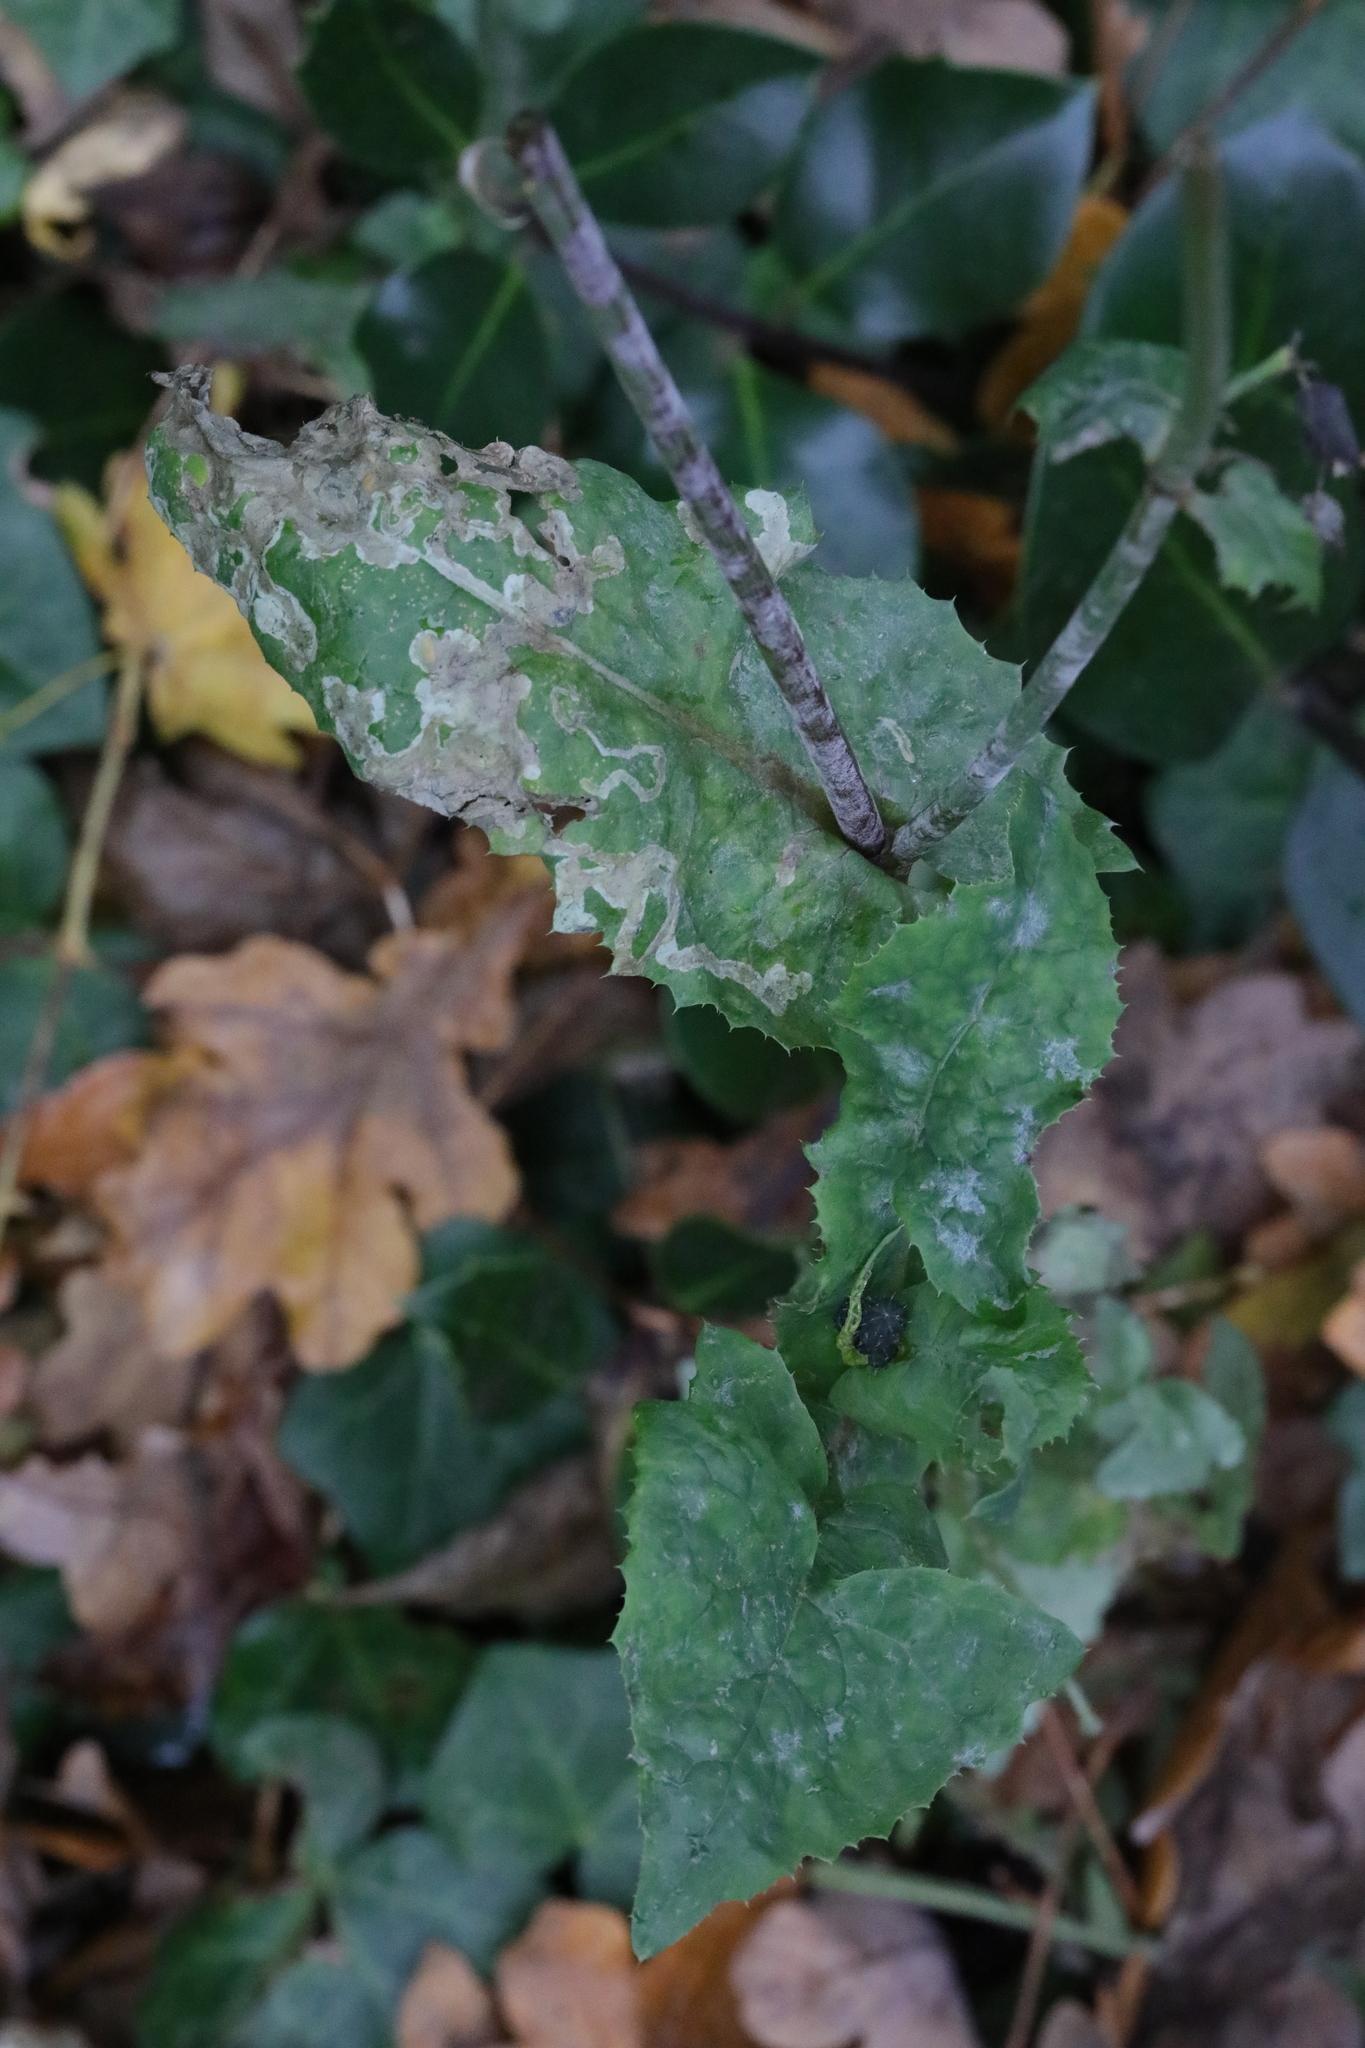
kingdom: Plantae
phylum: Tracheophyta
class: Magnoliopsida
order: Asterales
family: Asteraceae
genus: Sonchus
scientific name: Sonchus oleraceus
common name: Common sowthistle
